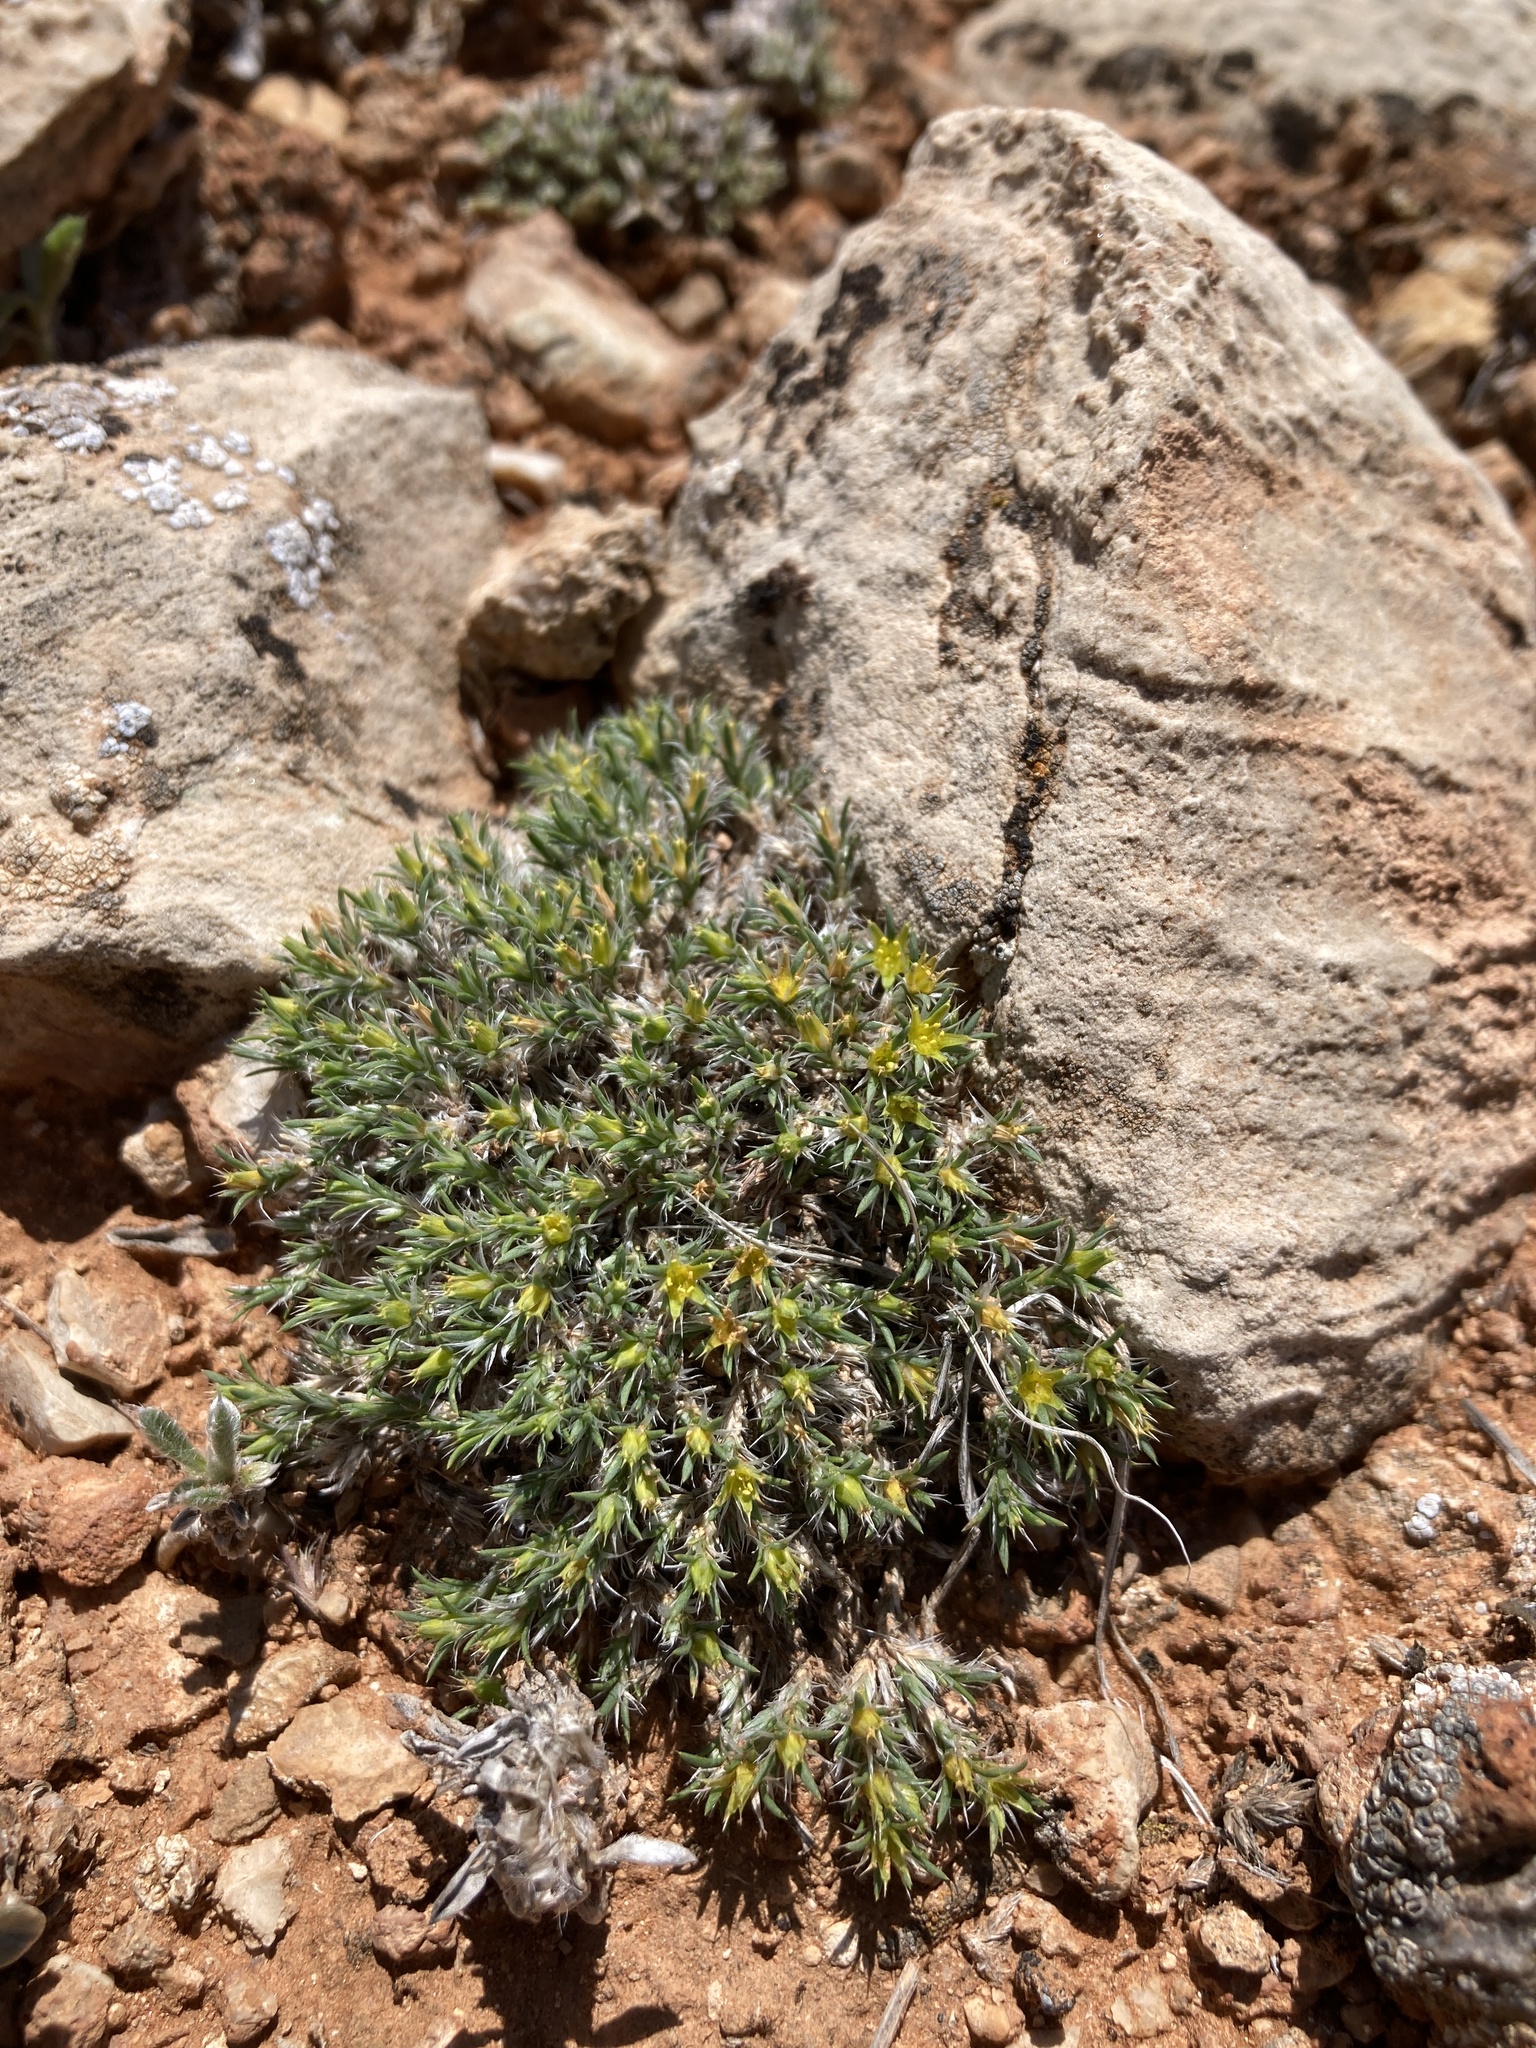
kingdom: Plantae
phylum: Tracheophyta
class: Magnoliopsida
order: Caryophyllales
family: Caryophyllaceae
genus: Paronychia
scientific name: Paronychia sessiliflora
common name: Creeping nailwort
